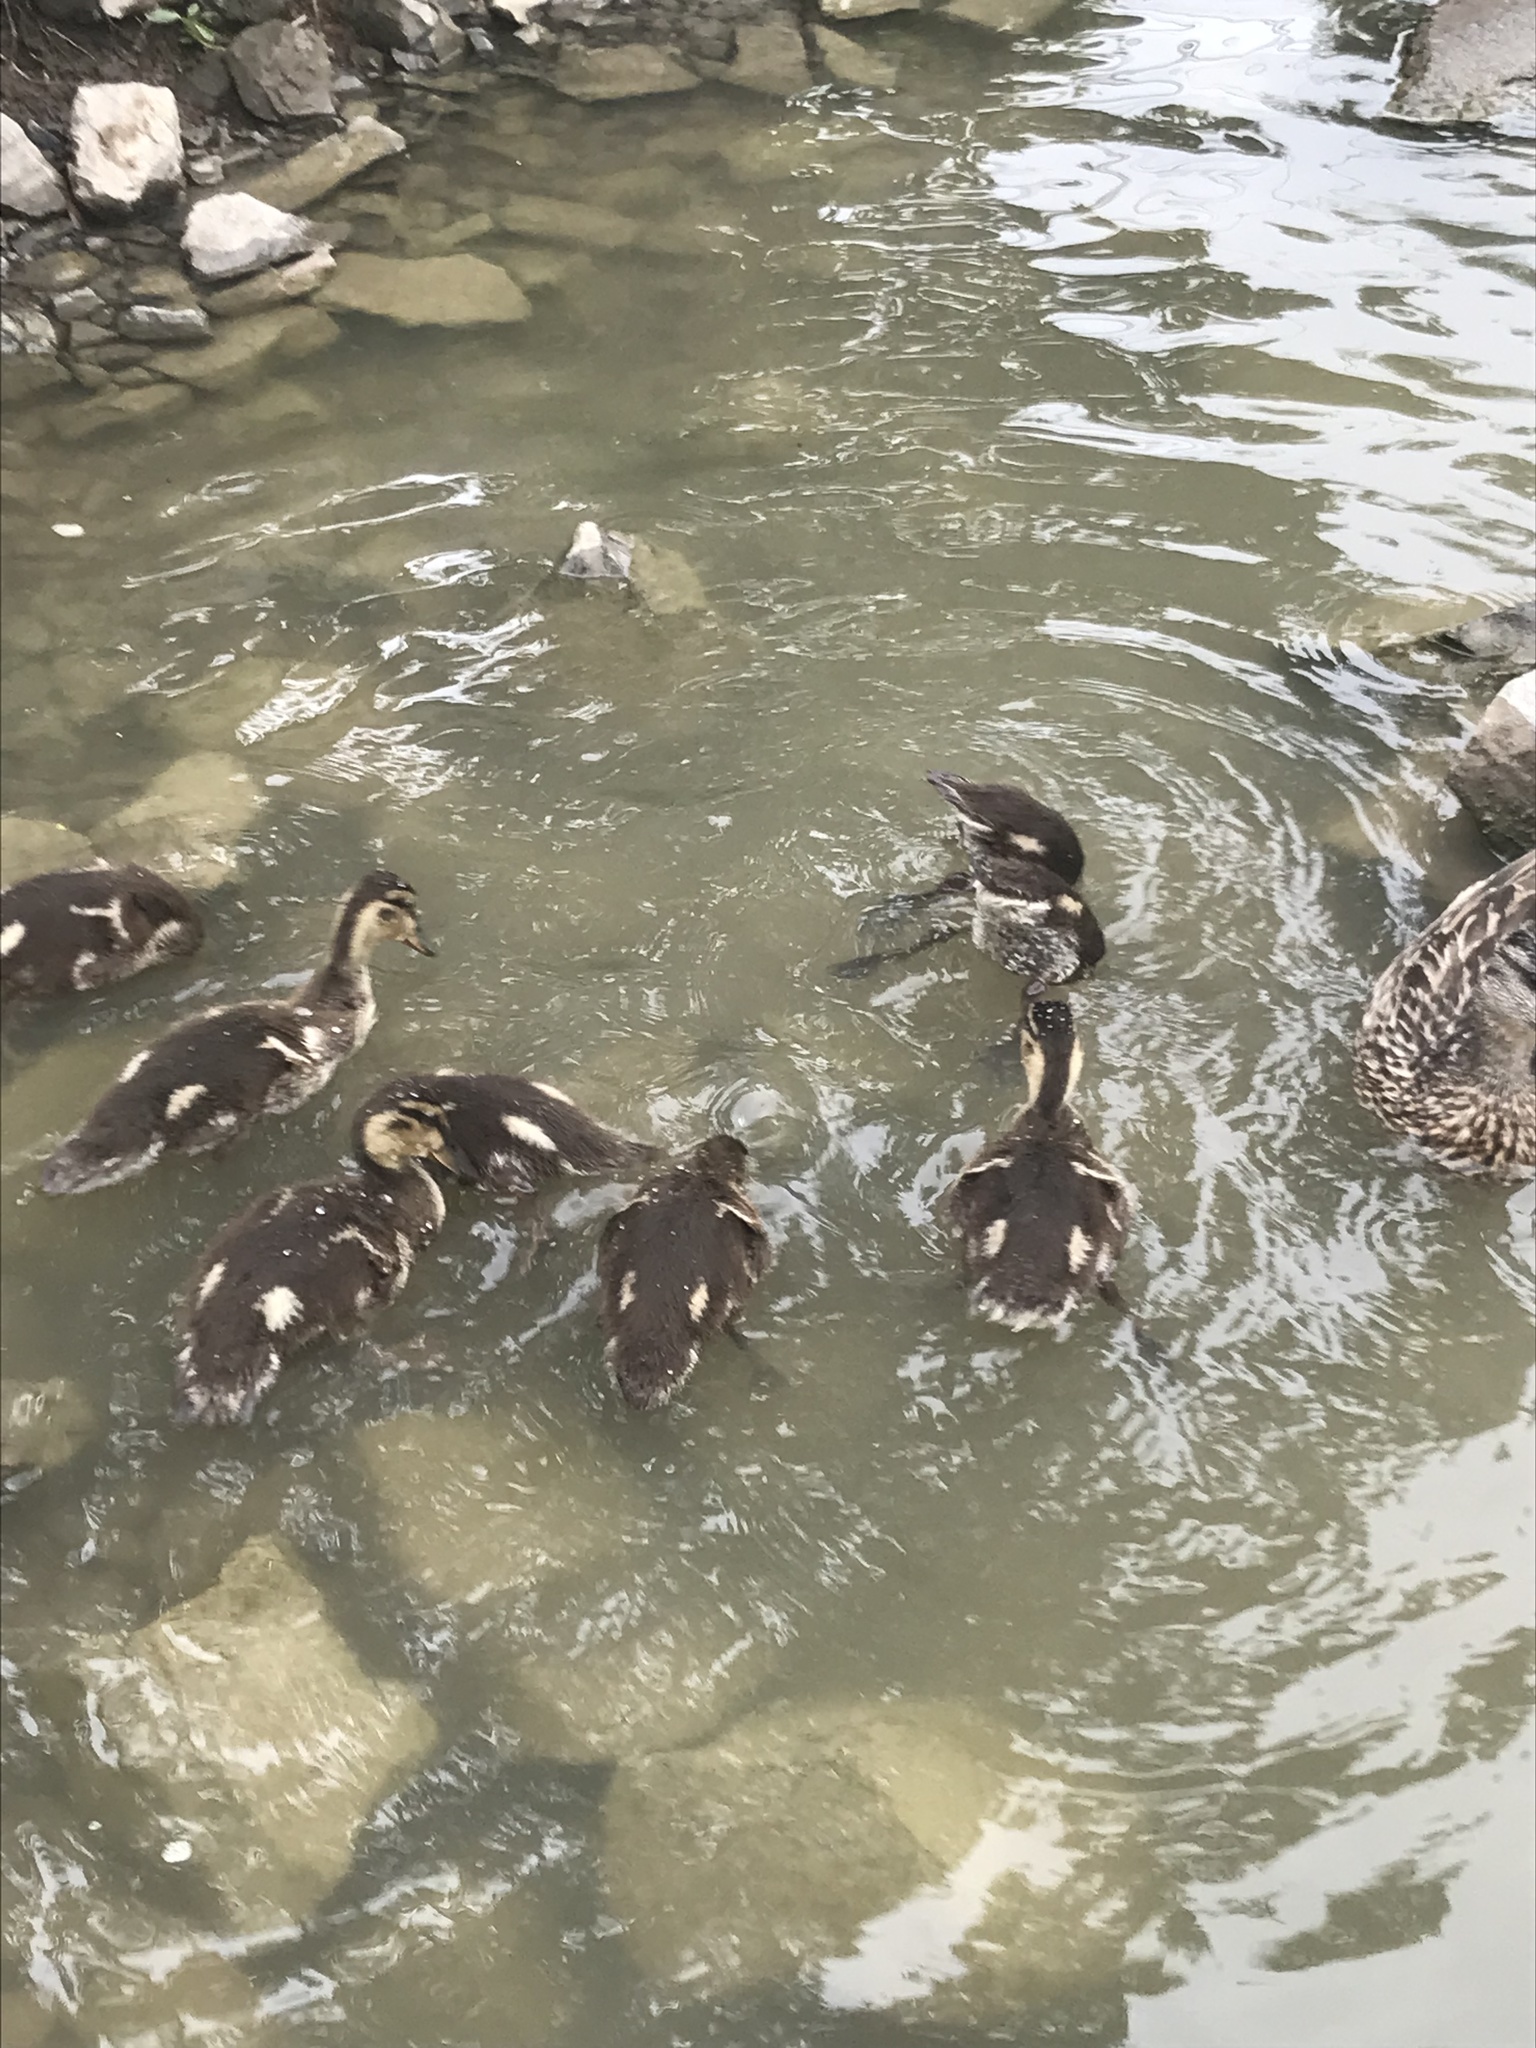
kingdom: Animalia
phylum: Chordata
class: Aves
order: Anseriformes
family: Anatidae
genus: Anas
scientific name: Anas platyrhynchos
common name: Mallard
